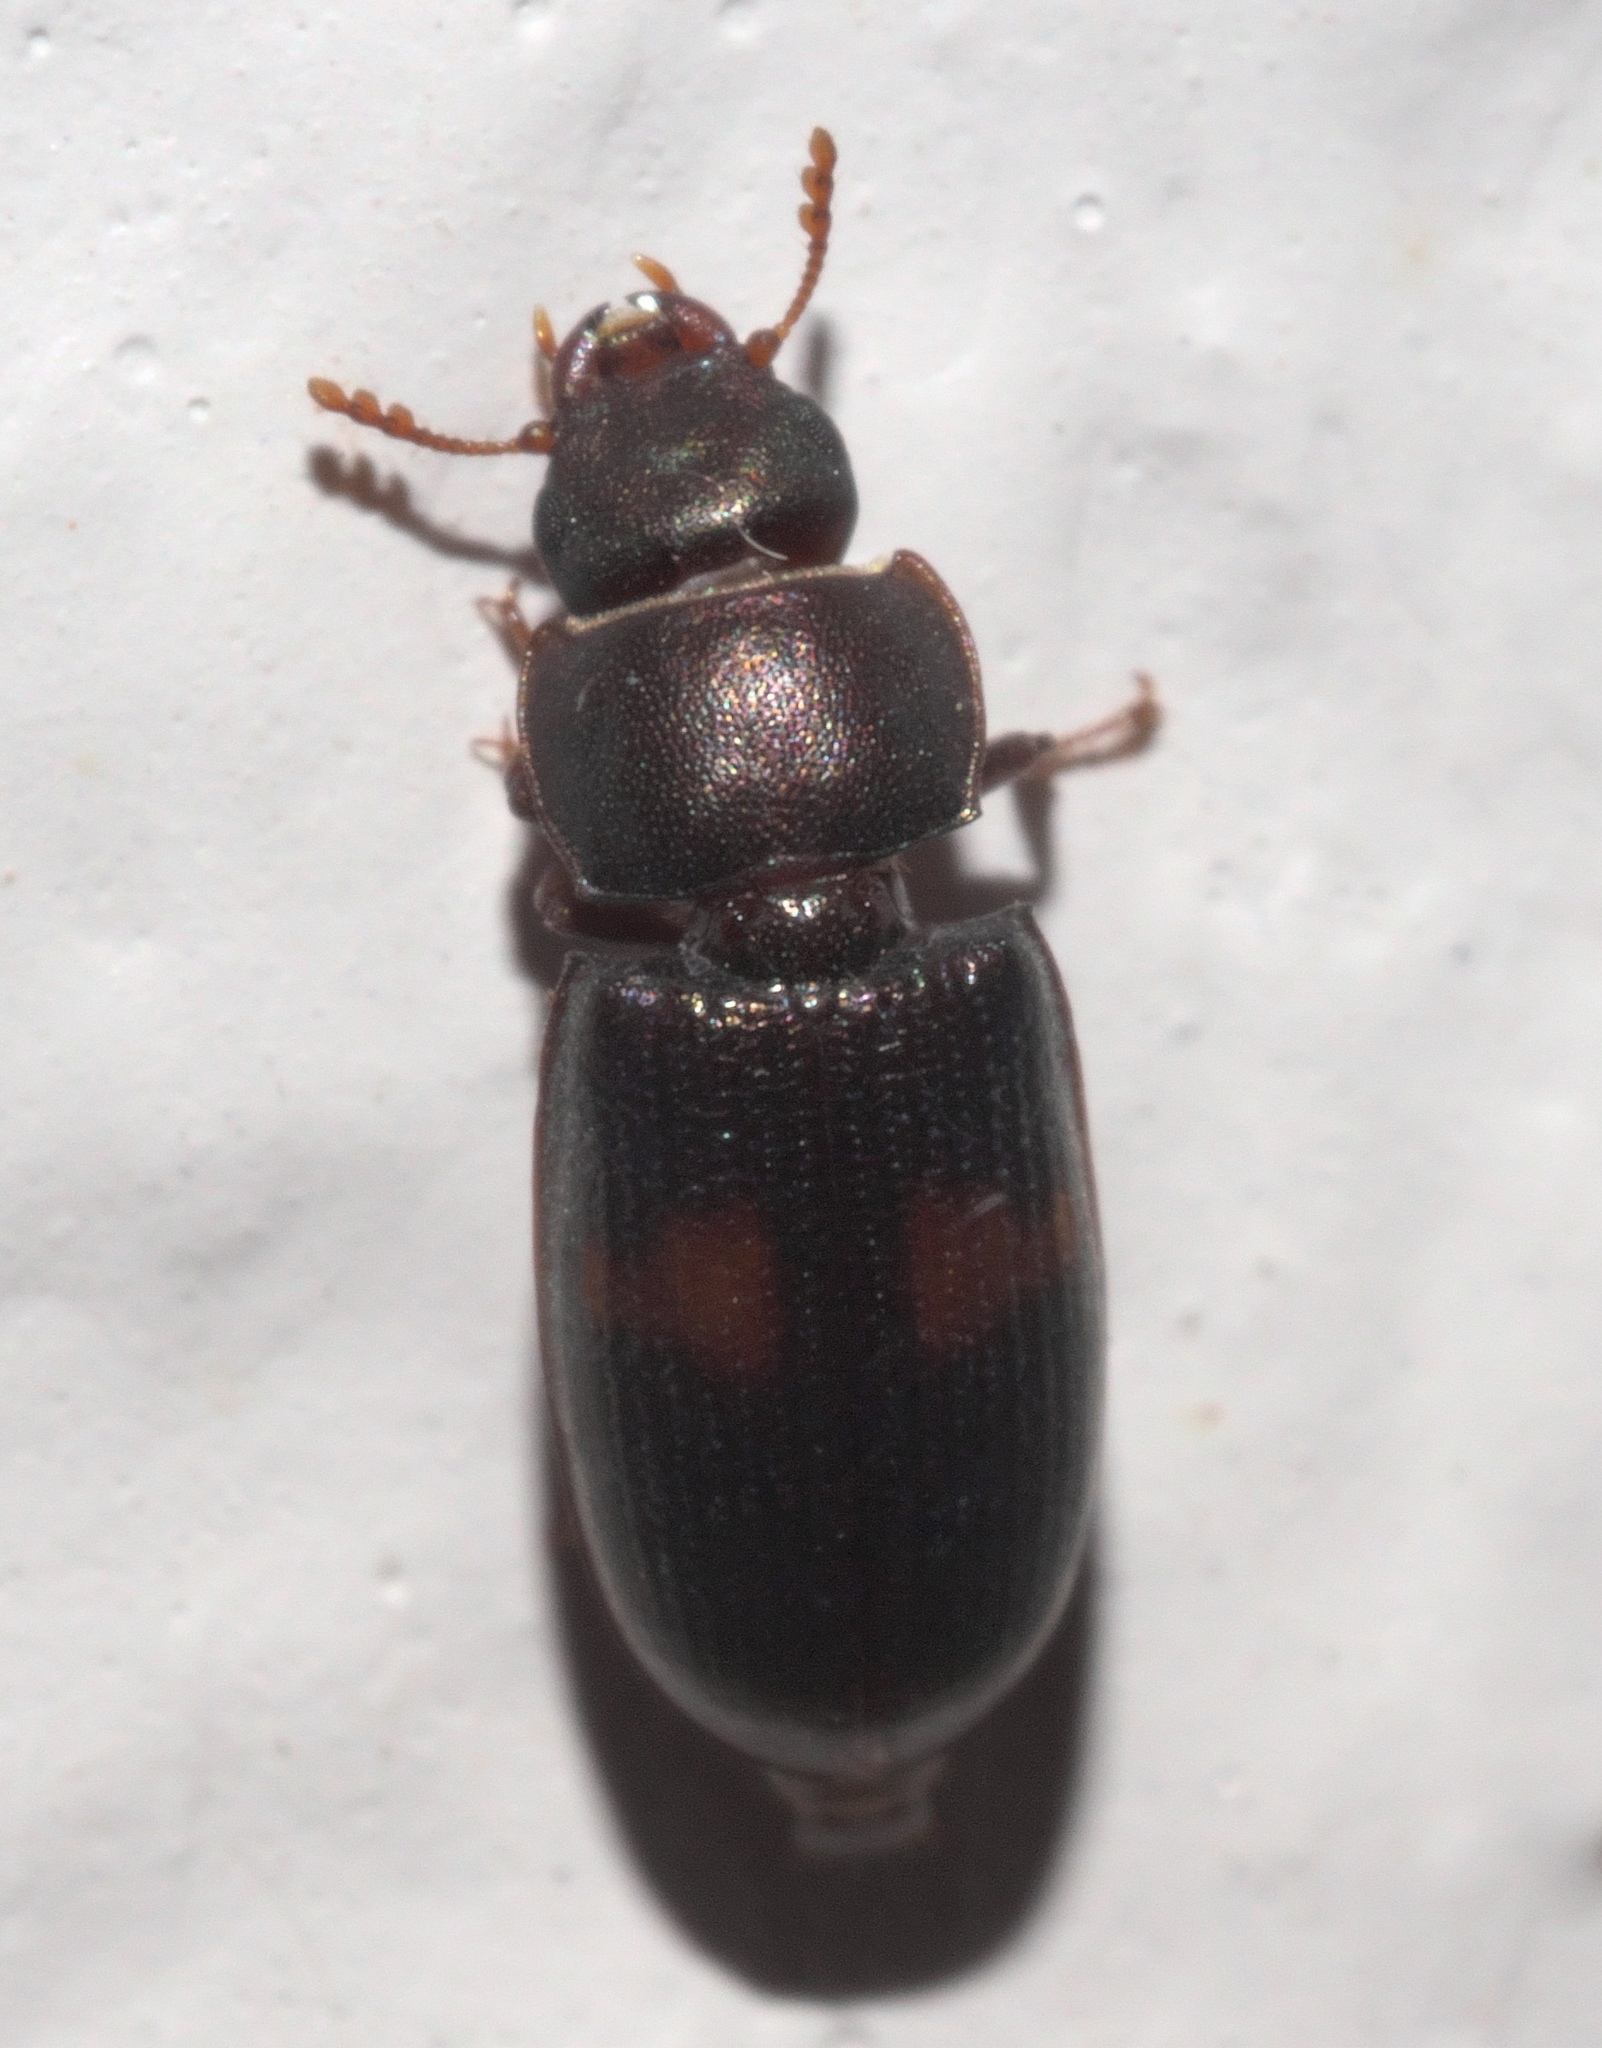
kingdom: Animalia
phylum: Arthropoda
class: Insecta
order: Coleoptera
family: Trogossitidae
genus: Tenebroides
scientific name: Tenebroides
